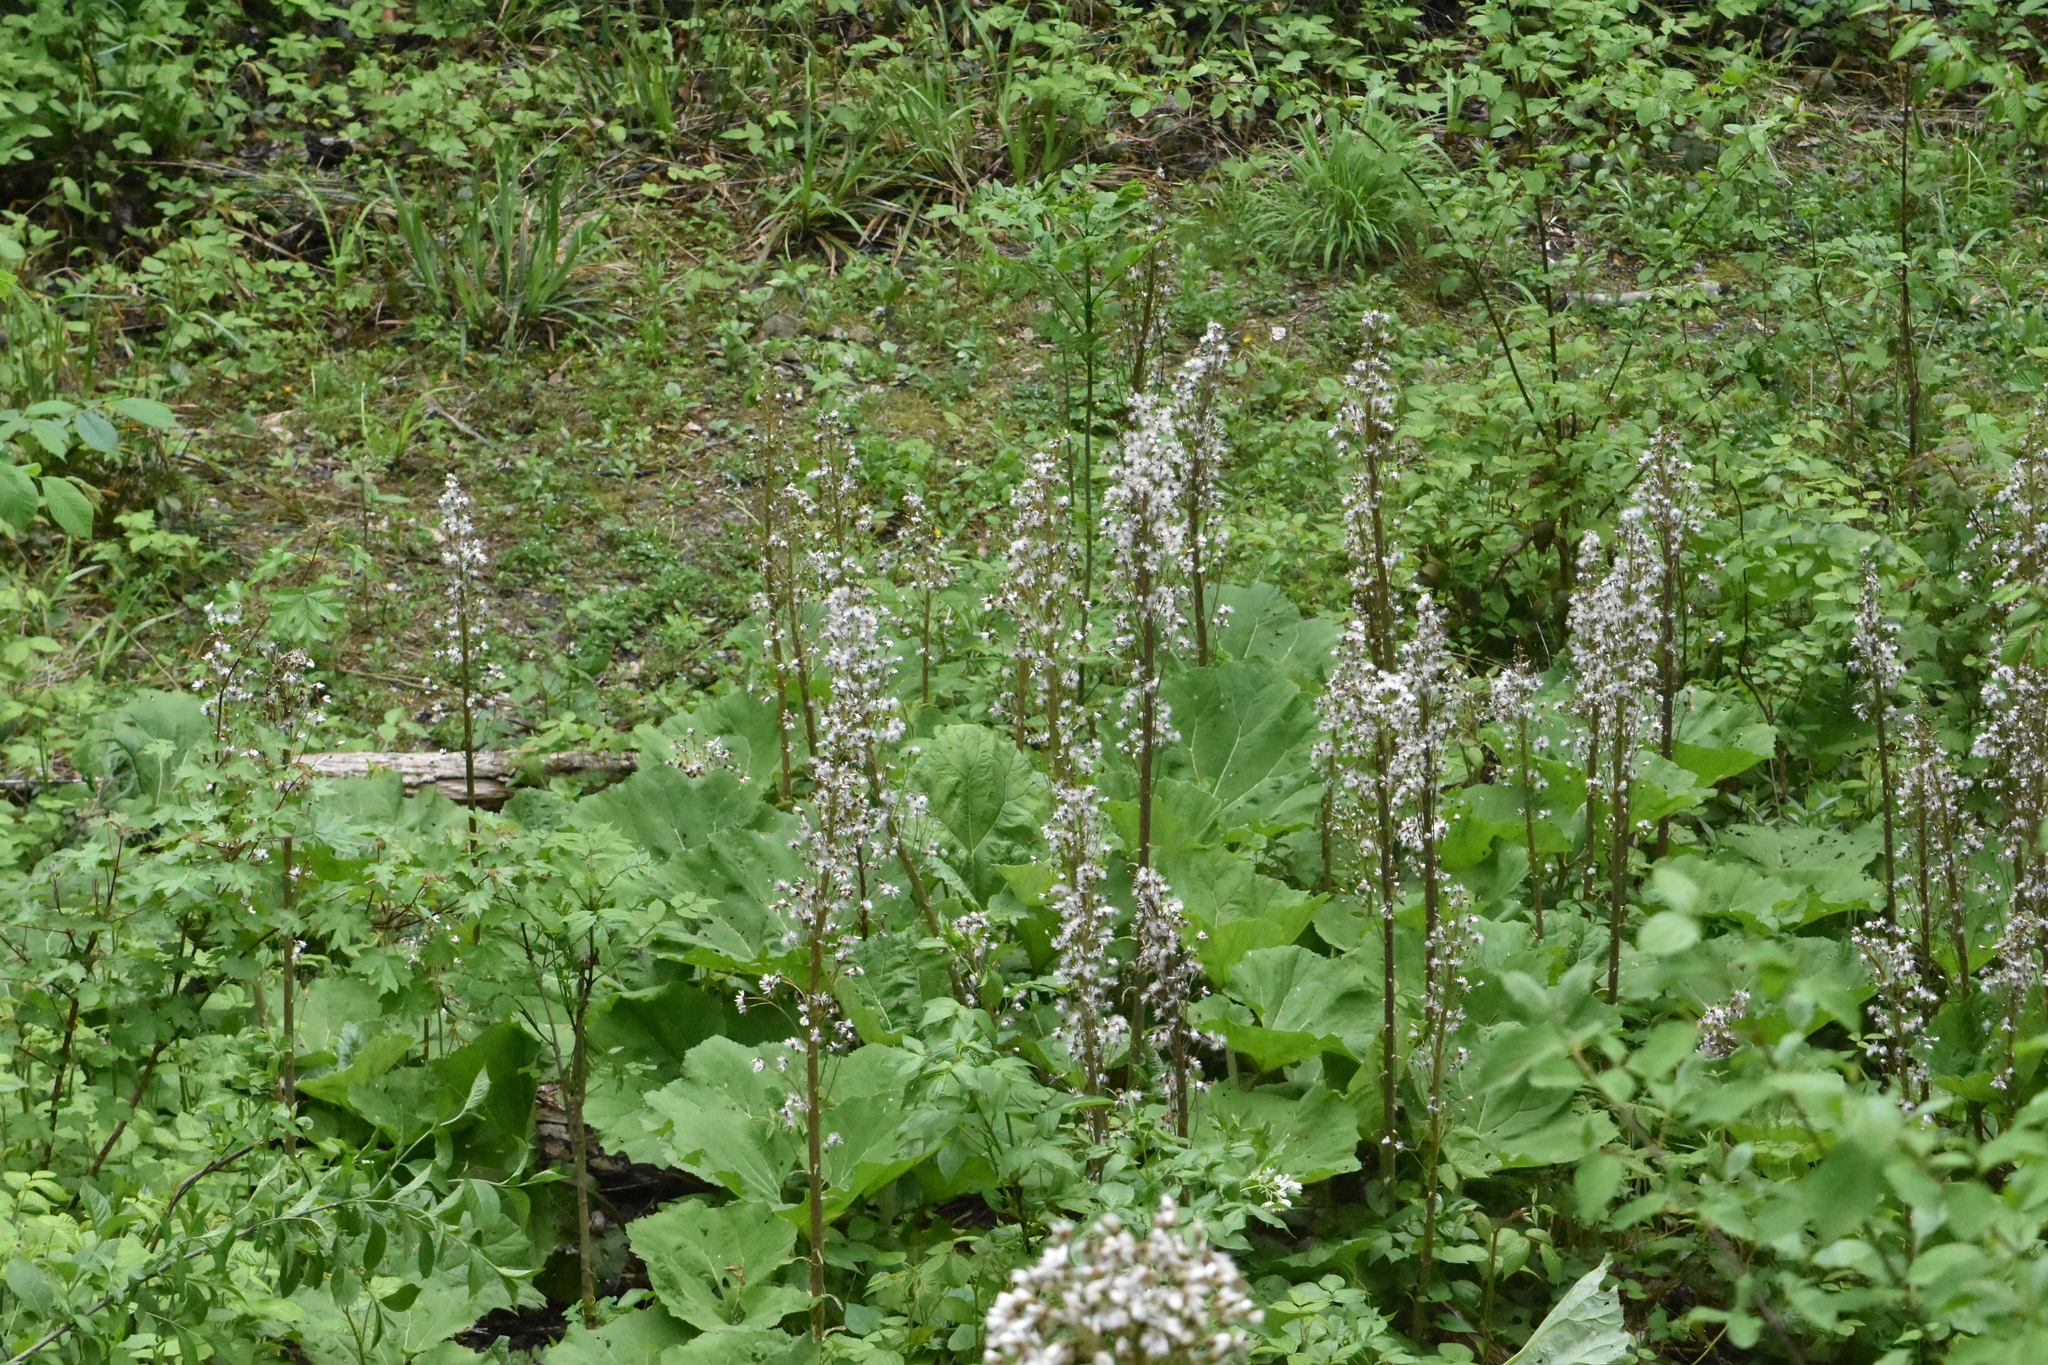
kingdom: Plantae
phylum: Tracheophyta
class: Magnoliopsida
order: Asterales
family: Asteraceae
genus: Petasites
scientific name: Petasites hybridus
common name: Butterbur
